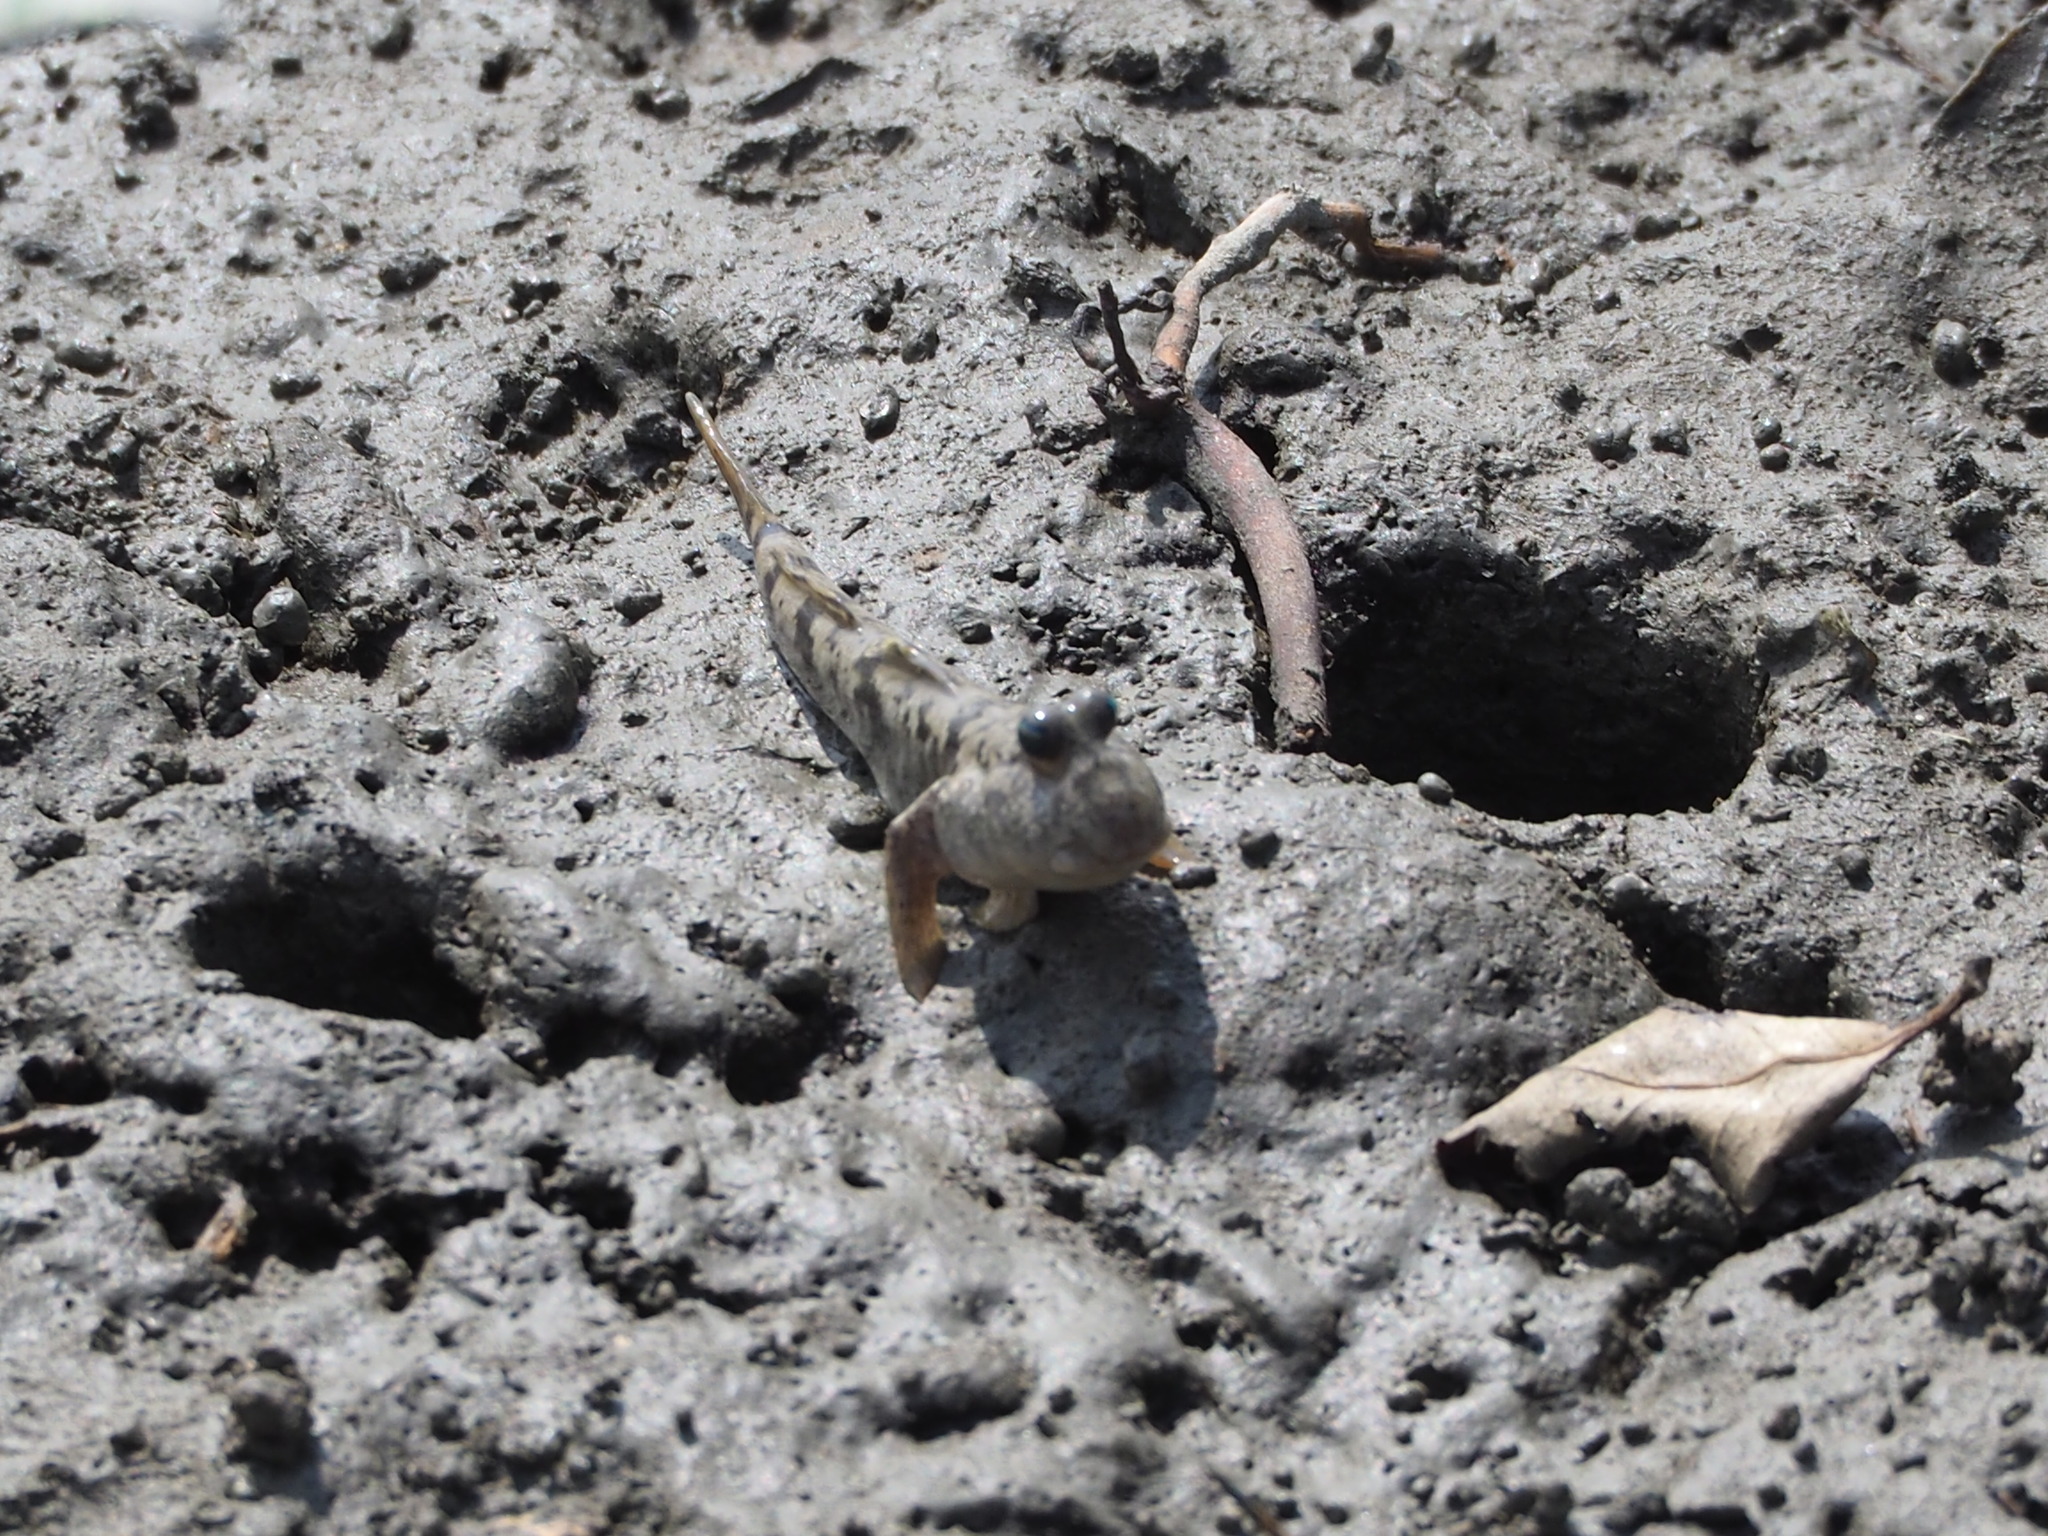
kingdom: Animalia
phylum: Chordata
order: Perciformes
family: Gobiidae
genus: Periophthalmus
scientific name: Periophthalmus modestus
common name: Black goby
